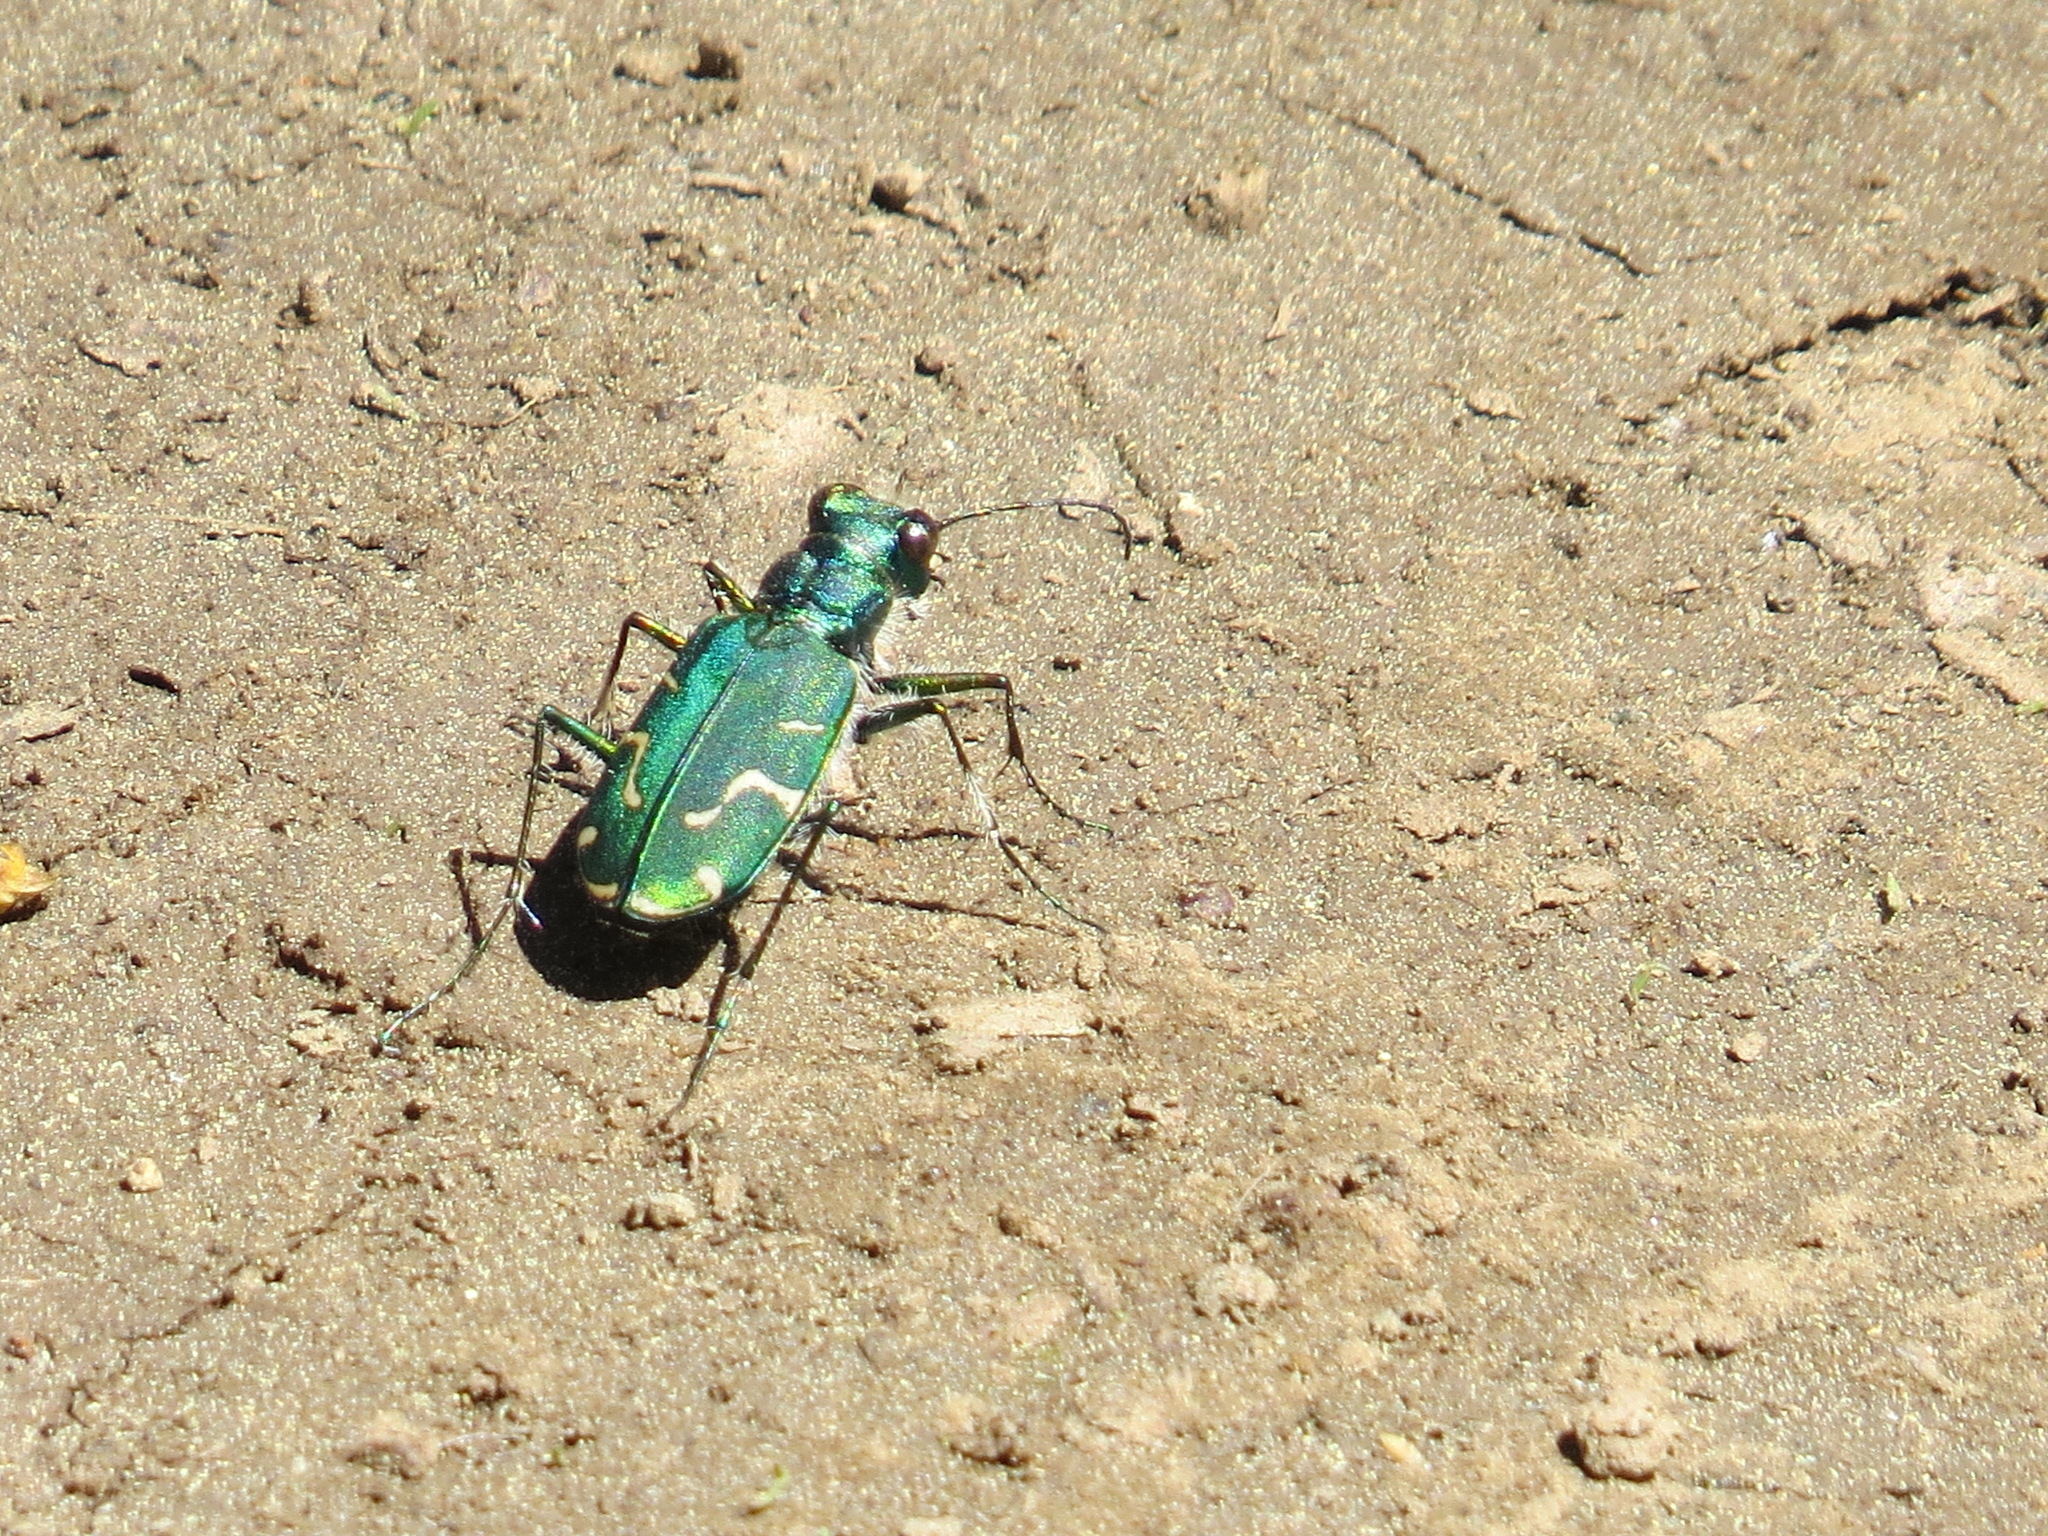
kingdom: Animalia
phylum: Arthropoda
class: Insecta
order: Coleoptera
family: Carabidae
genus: Cicindela
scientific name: Cicindela tranquebarica
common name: Oblique-lined tiger beetle
